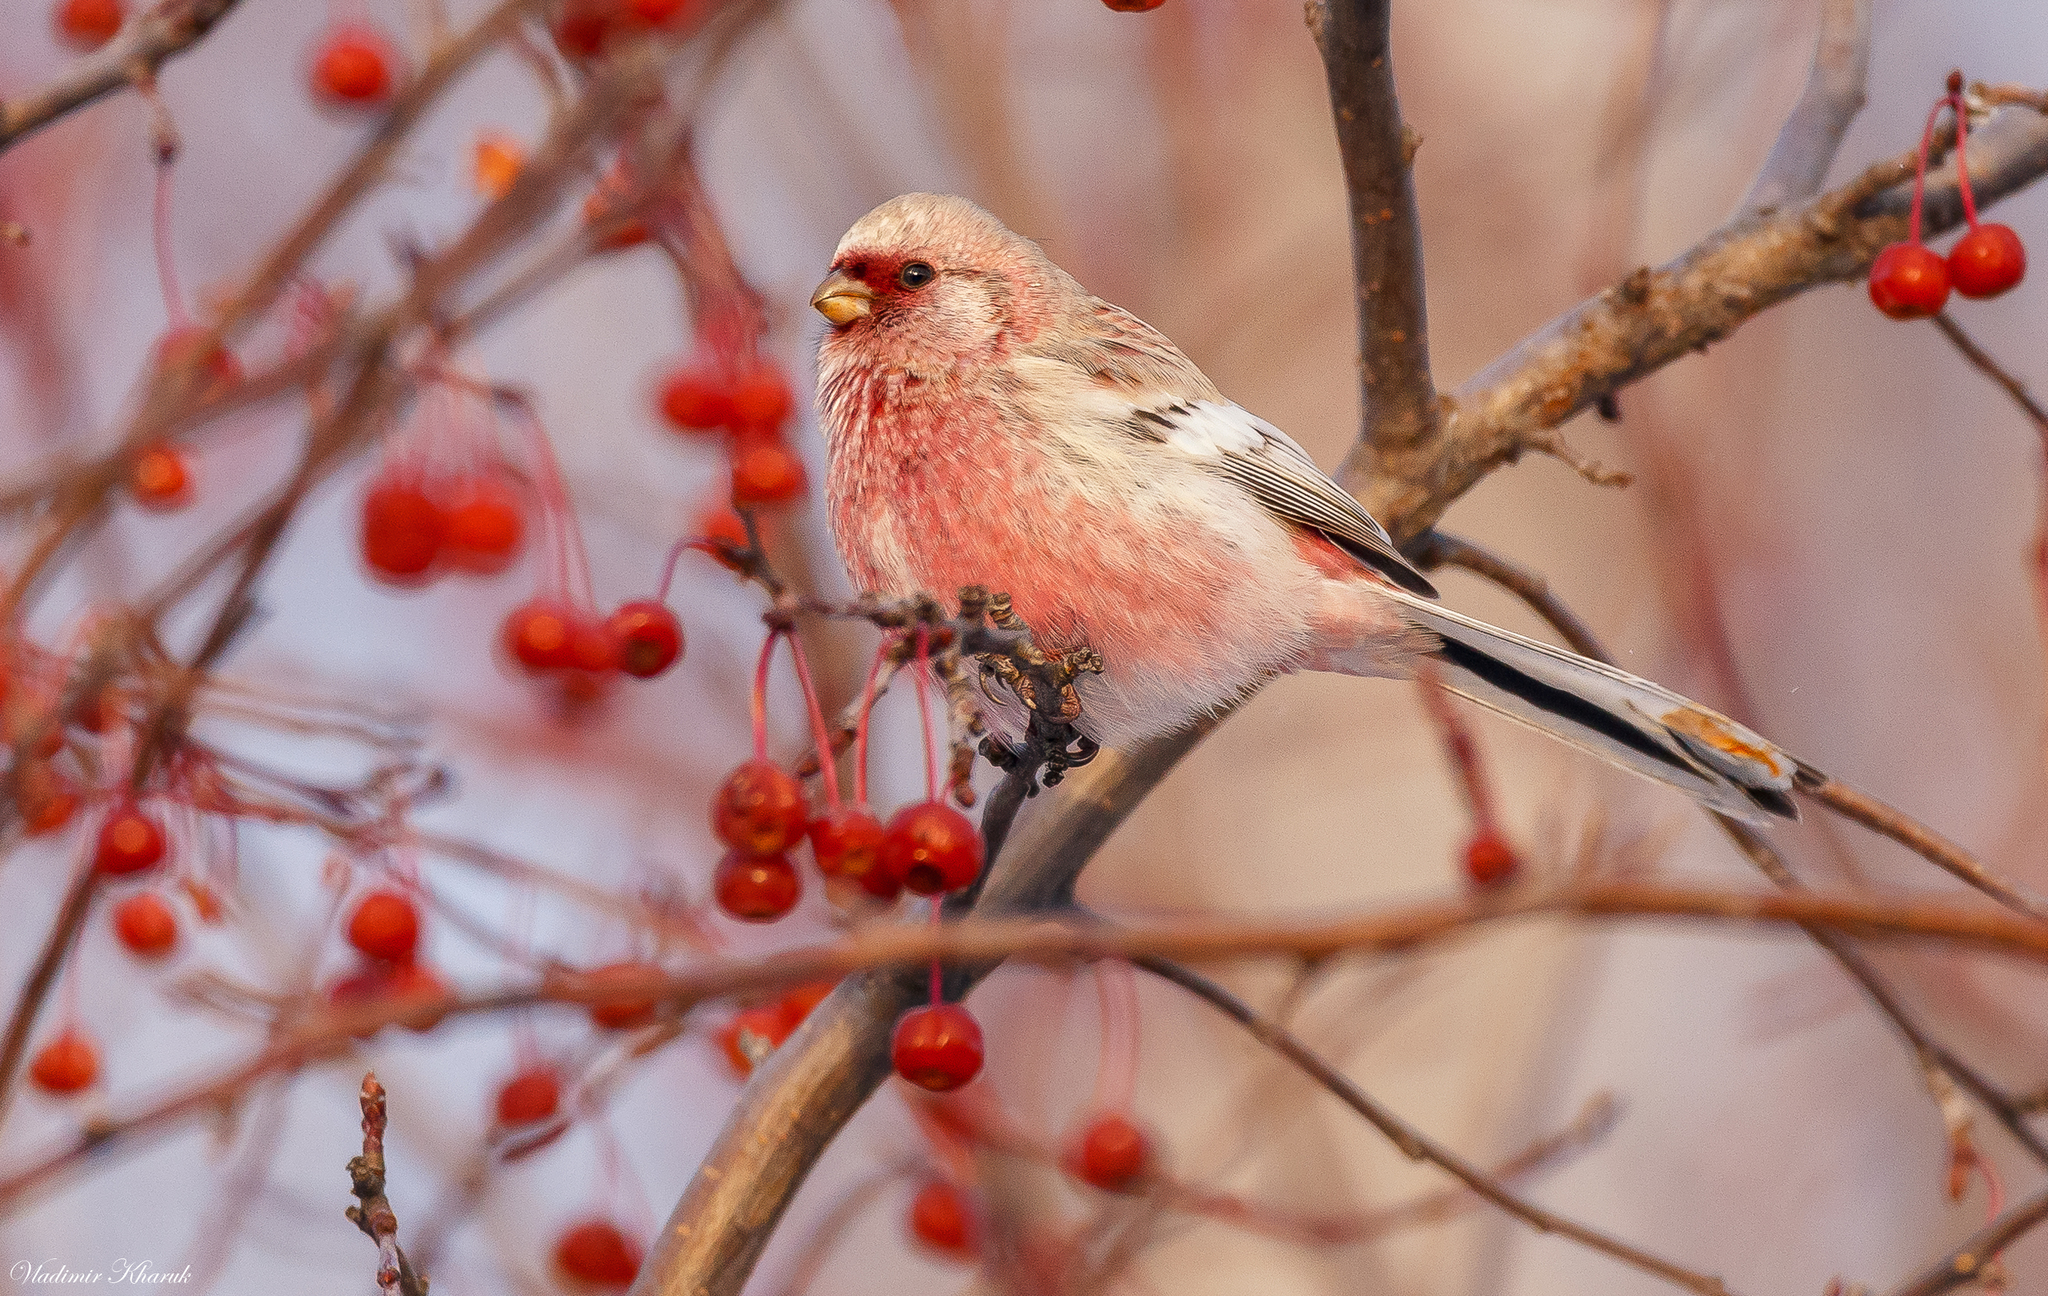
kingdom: Animalia
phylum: Chordata
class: Aves
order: Passeriformes
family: Fringillidae
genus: Carpodacus
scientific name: Carpodacus sibiricus
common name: Long-tailed rosefinch
